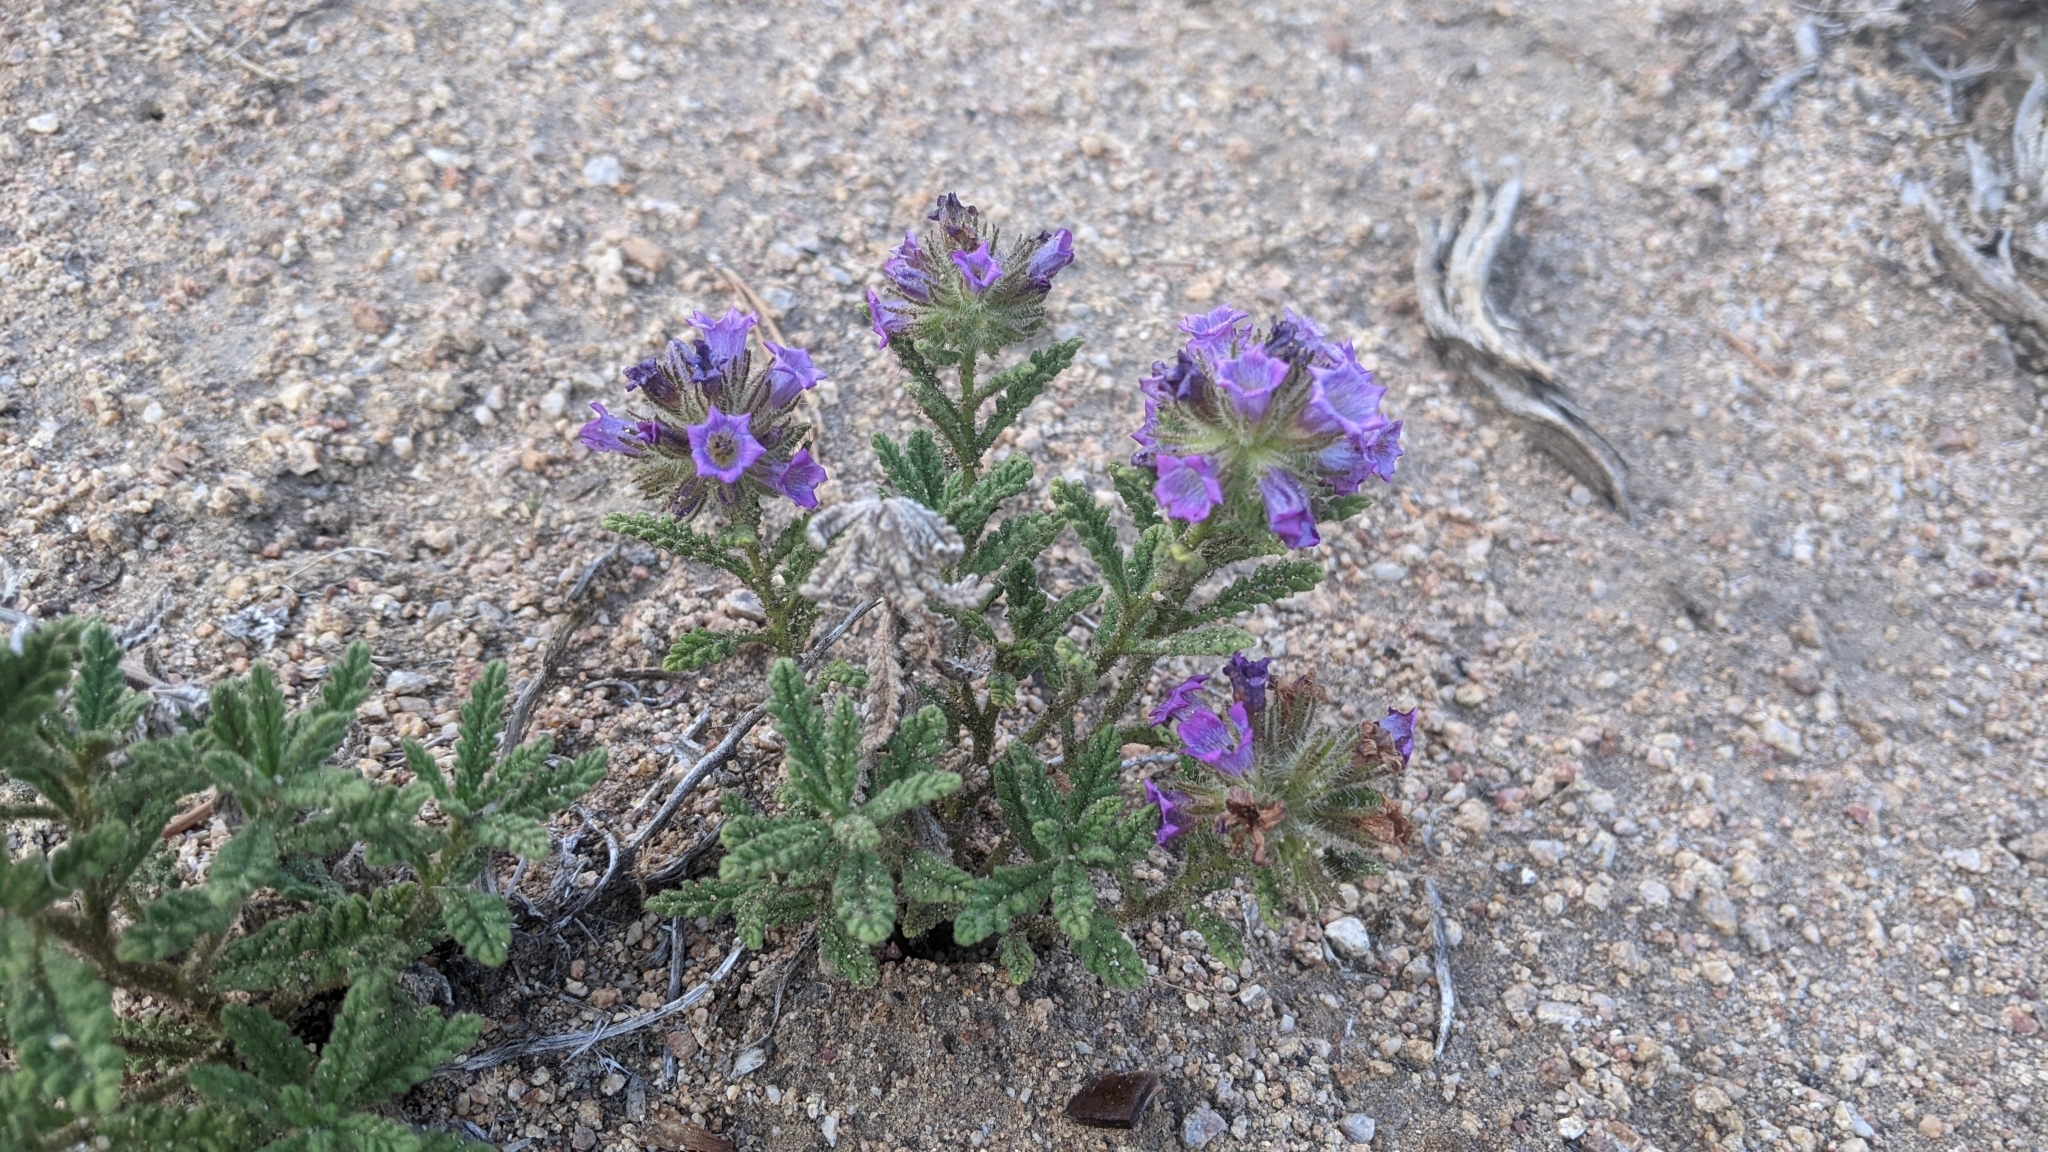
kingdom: Plantae
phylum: Tracheophyta
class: Magnoliopsida
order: Boraginales
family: Namaceae
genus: Nama
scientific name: Nama rothrockii
